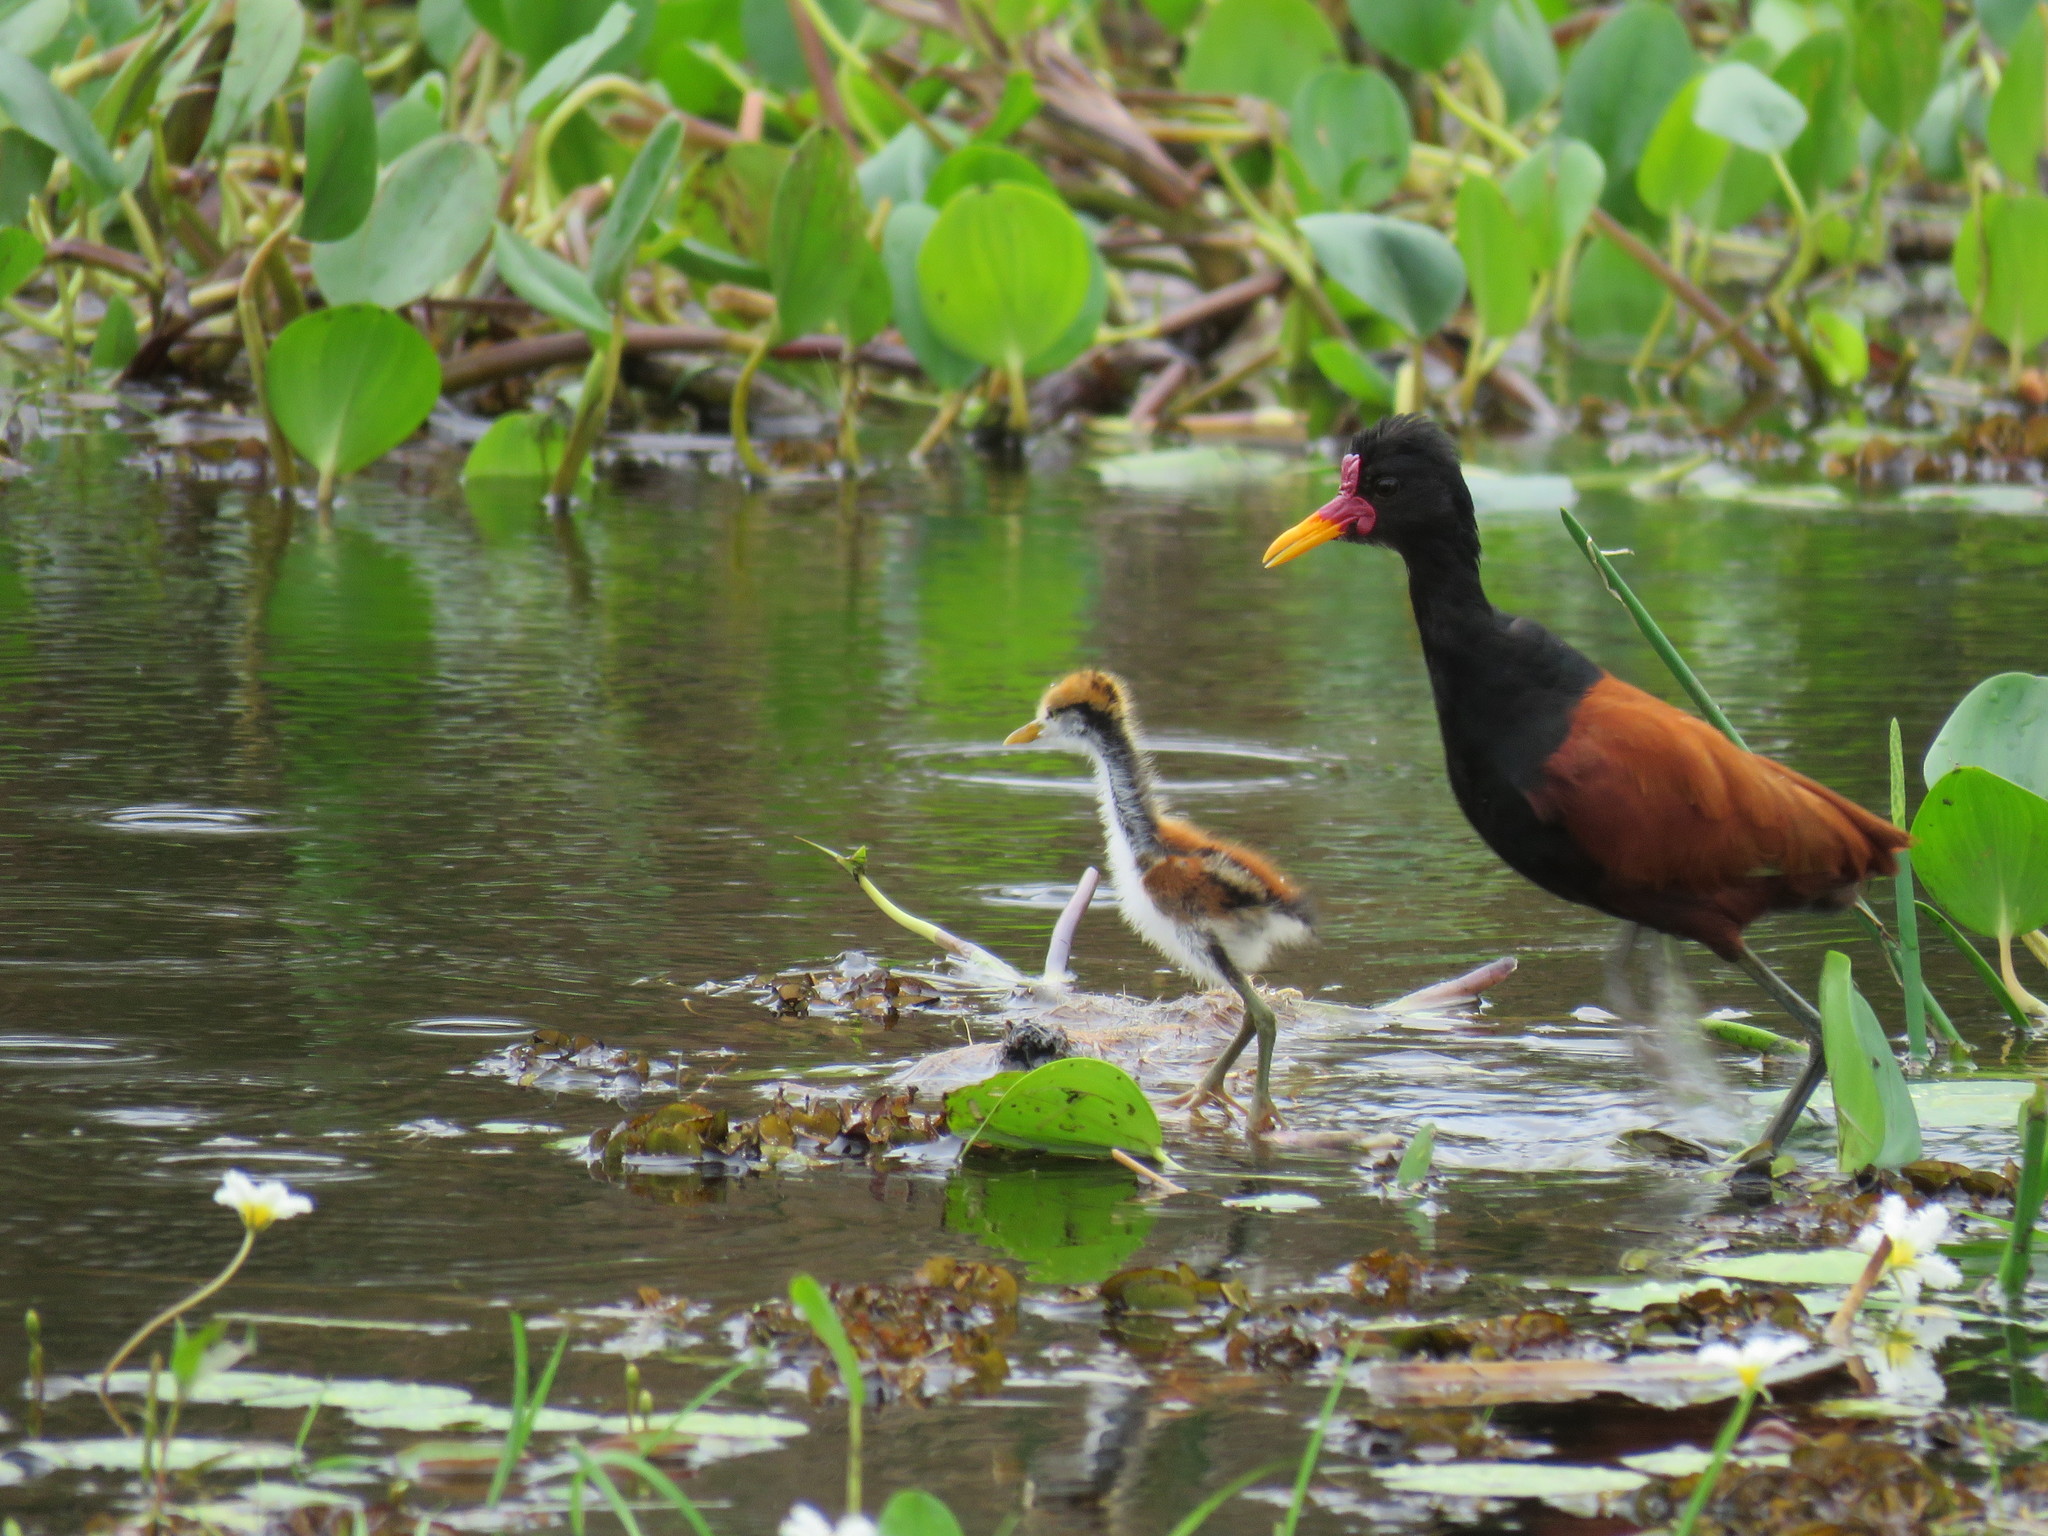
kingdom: Animalia
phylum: Chordata
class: Aves
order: Charadriiformes
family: Jacanidae
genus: Jacana
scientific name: Jacana jacana
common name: Wattled jacana
